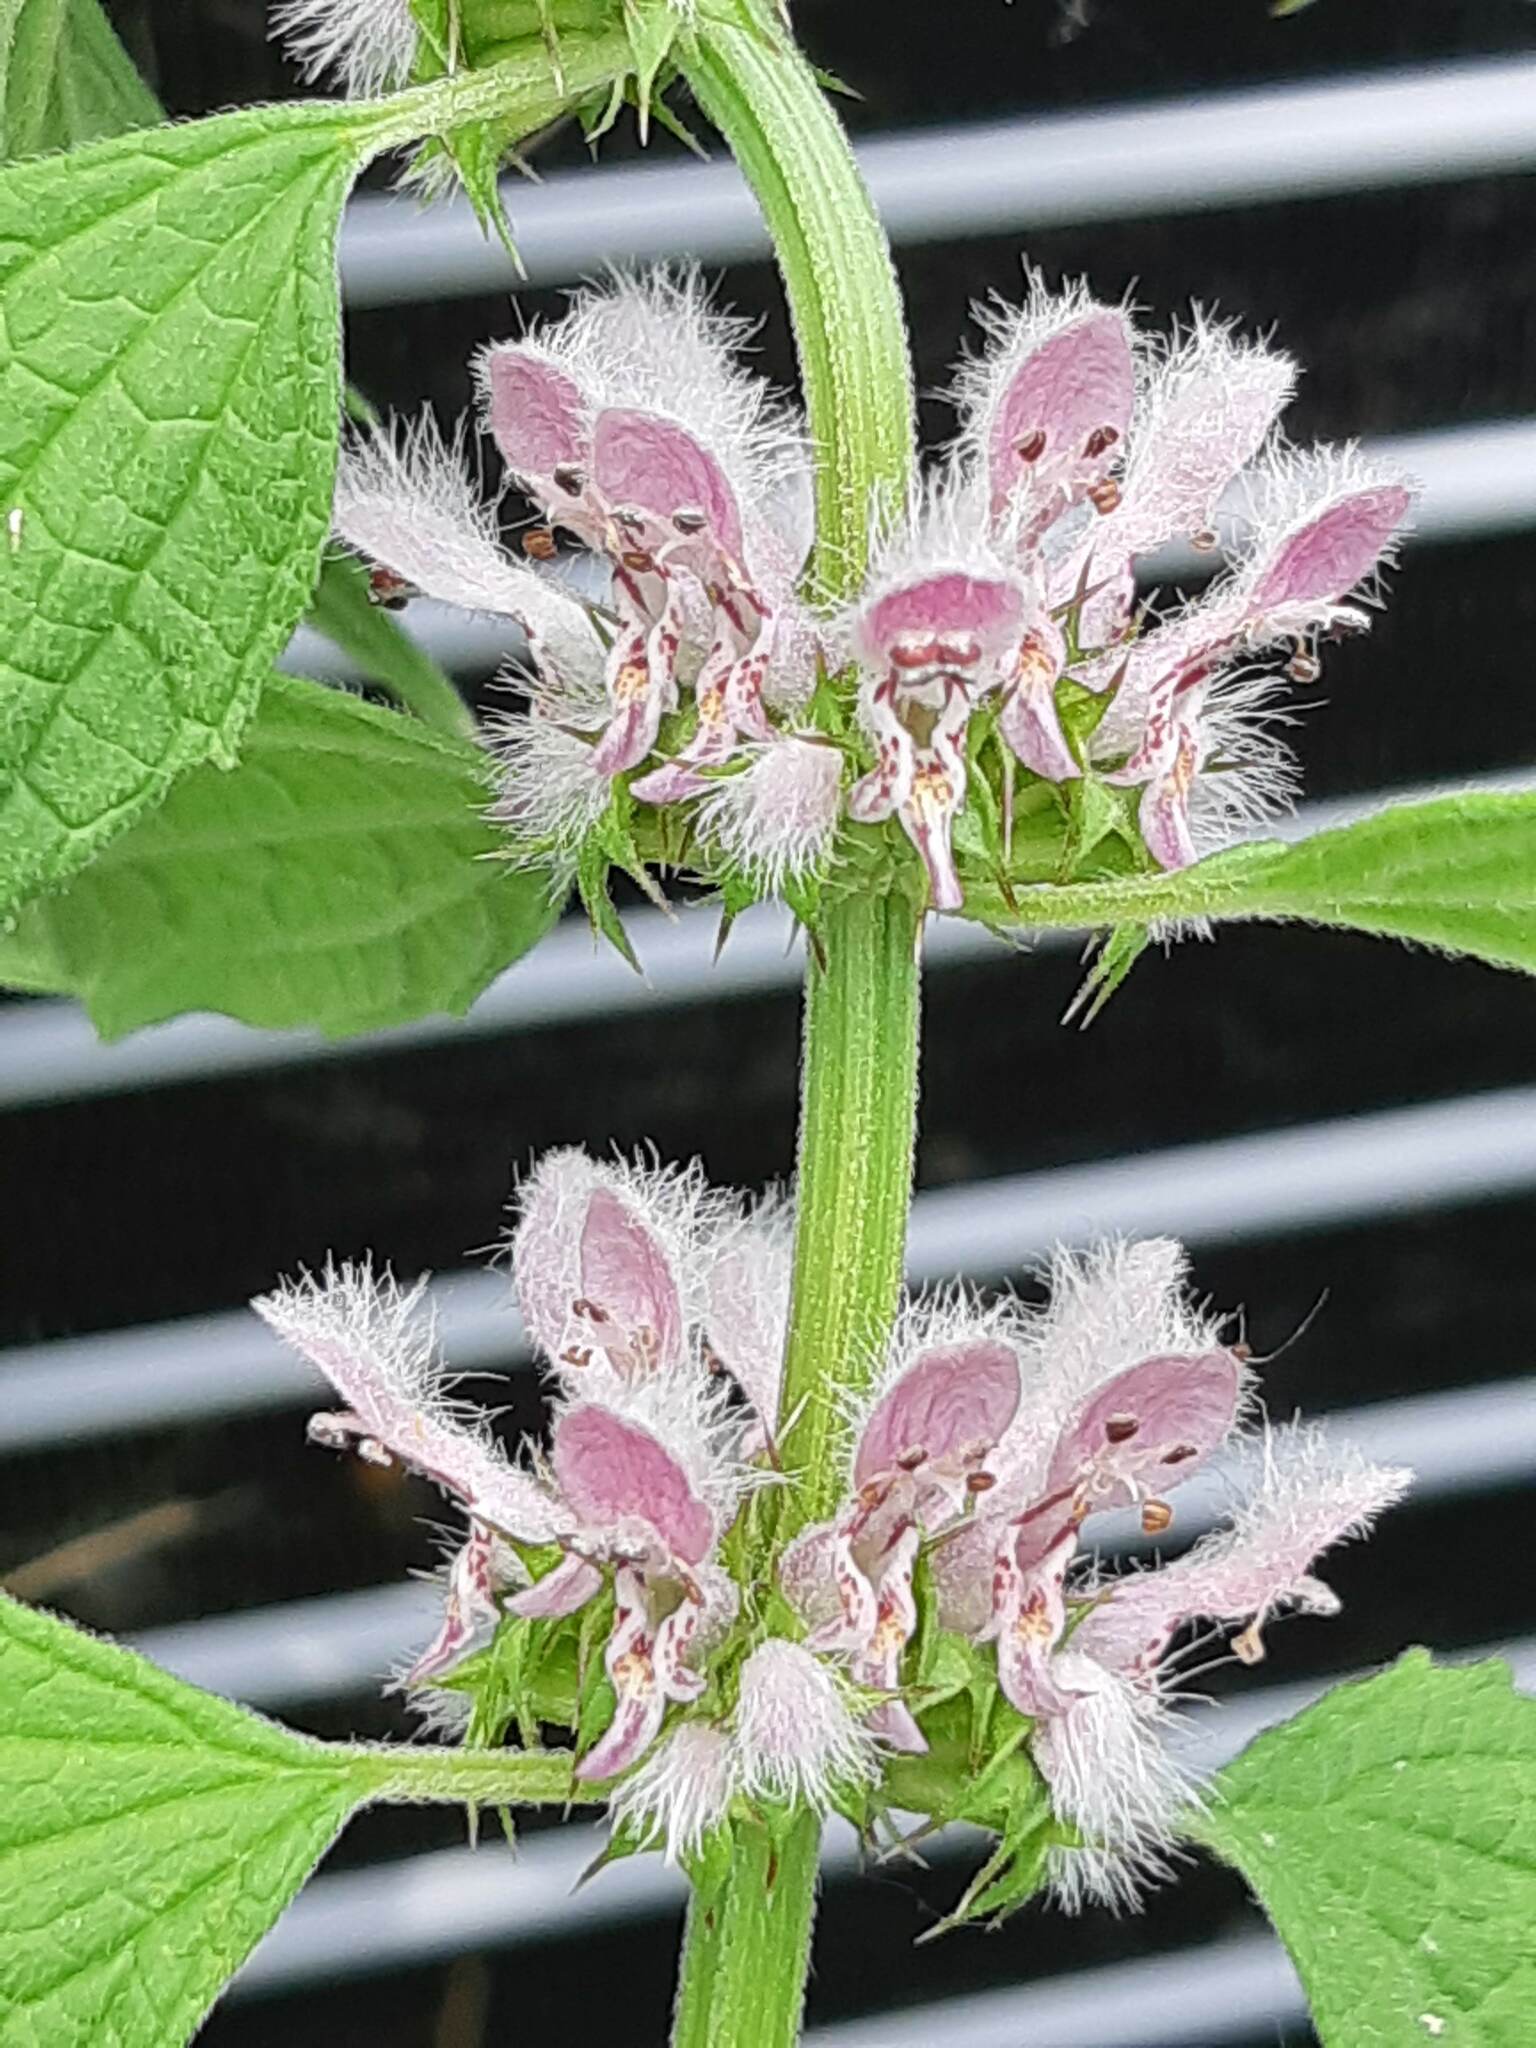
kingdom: Plantae
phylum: Tracheophyta
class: Magnoliopsida
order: Lamiales
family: Lamiaceae
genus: Leonurus
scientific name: Leonurus cardiaca
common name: Motherwort
